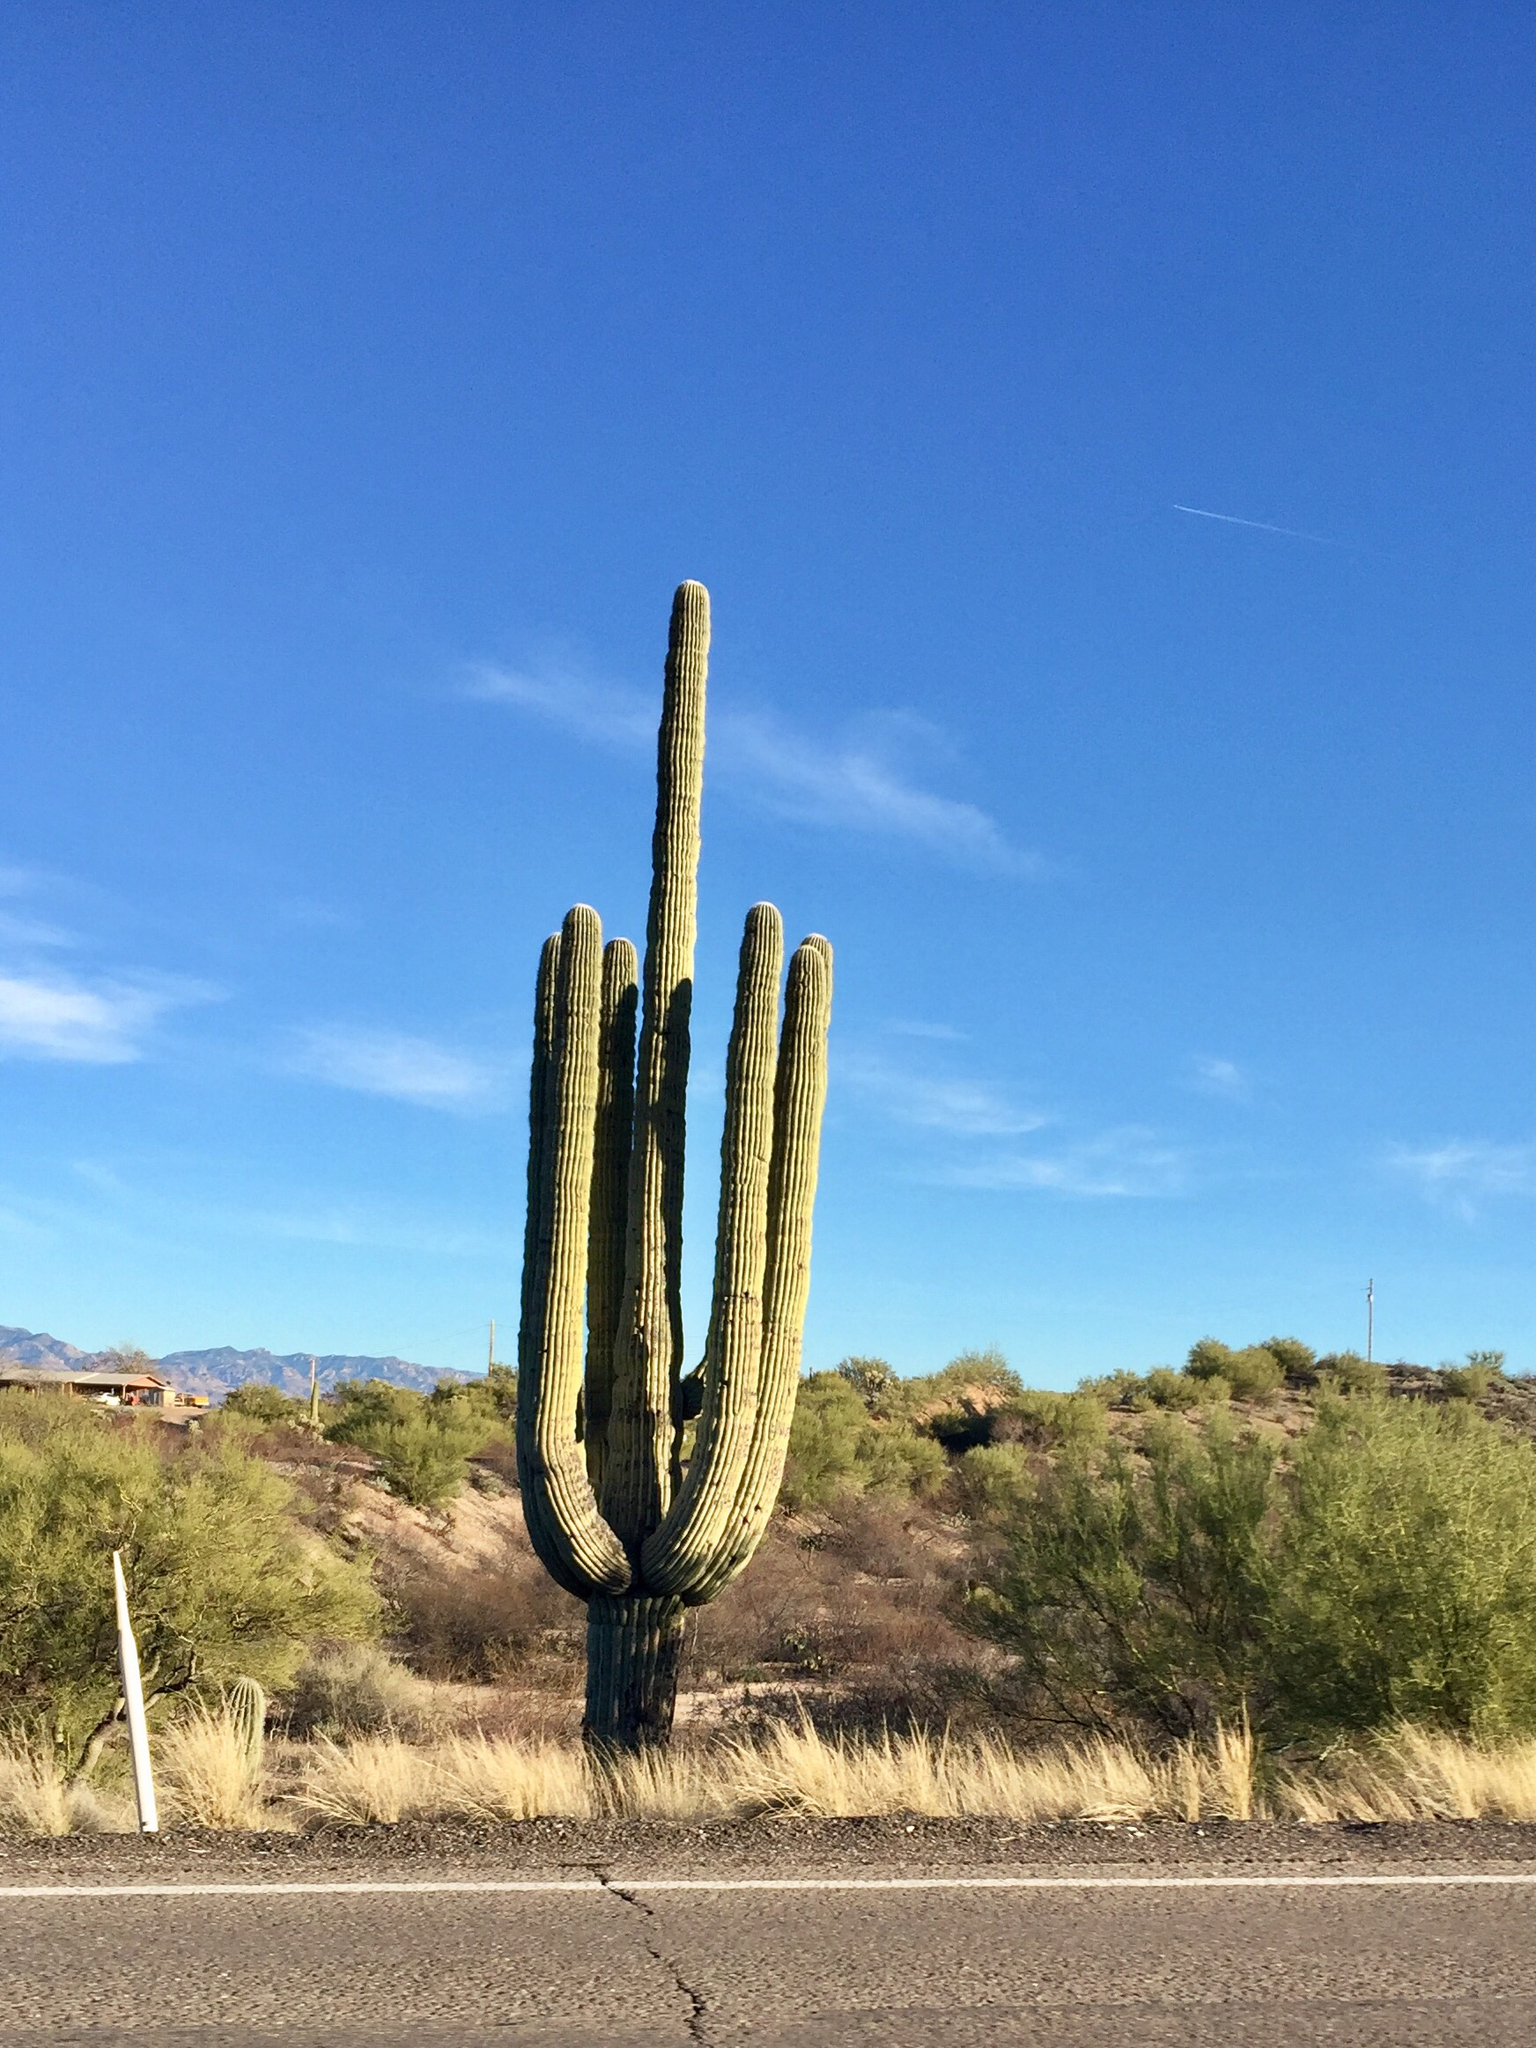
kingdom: Plantae
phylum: Tracheophyta
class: Magnoliopsida
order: Caryophyllales
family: Cactaceae
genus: Carnegiea
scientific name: Carnegiea gigantea
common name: Saguaro
